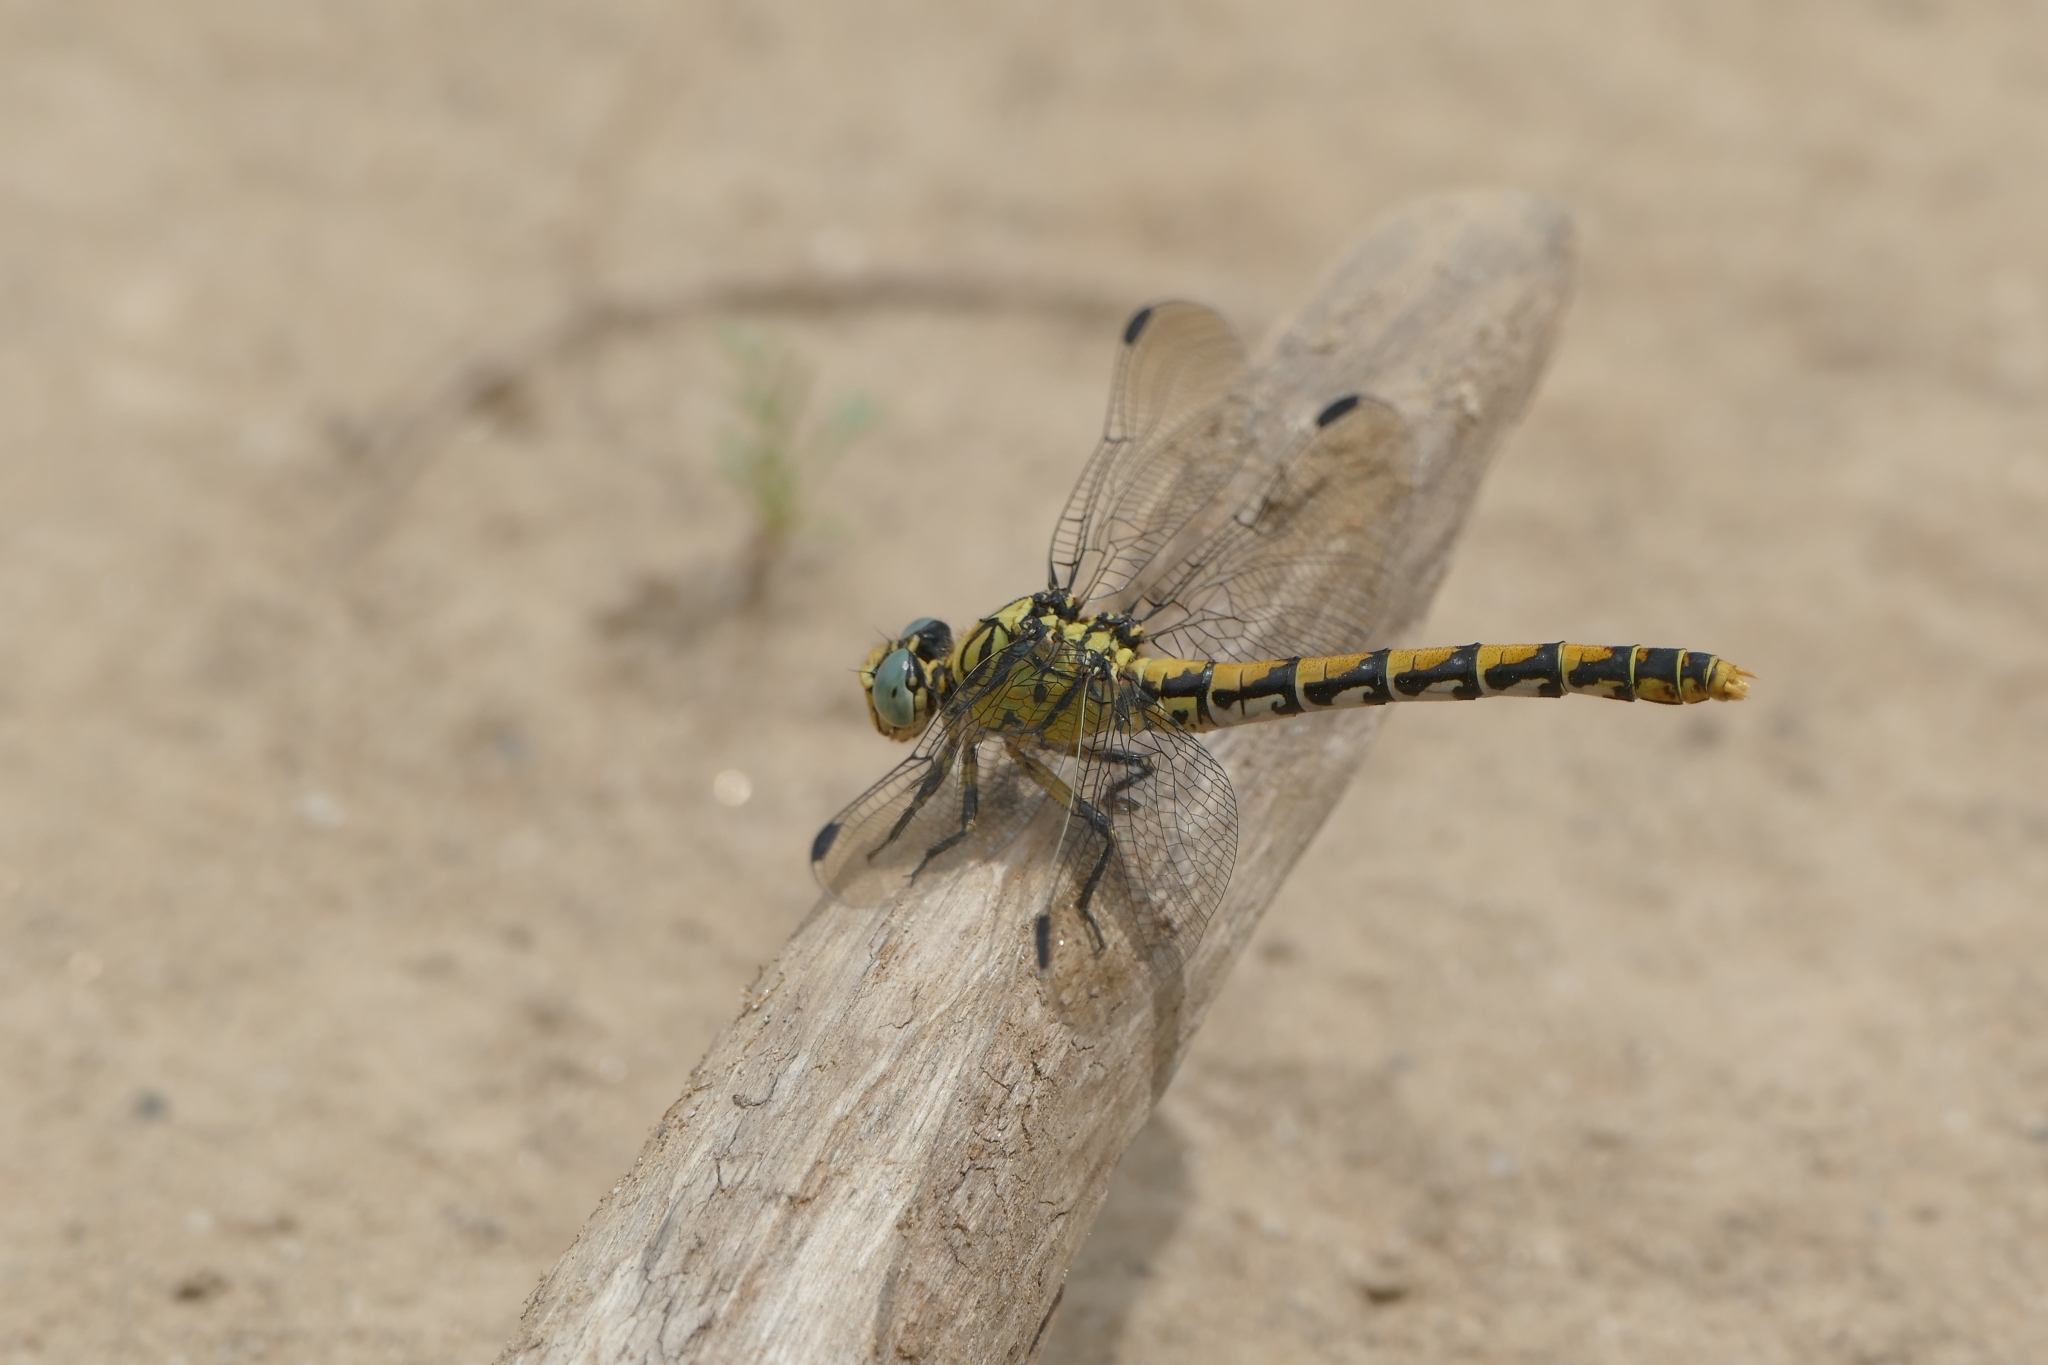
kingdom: Animalia
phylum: Arthropoda
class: Insecta
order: Odonata
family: Gomphidae
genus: Onychogomphus
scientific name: Onychogomphus forcipatus
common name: Small pincertail
